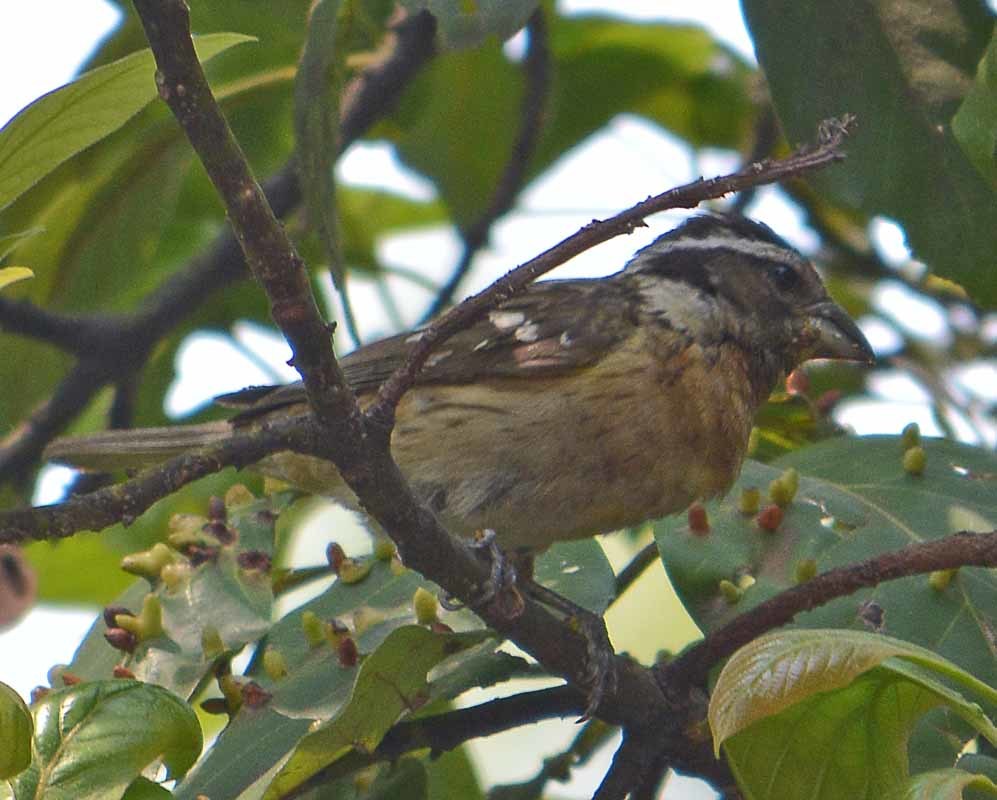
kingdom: Animalia
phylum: Chordata
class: Aves
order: Passeriformes
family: Cardinalidae
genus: Pheucticus
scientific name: Pheucticus melanocephalus
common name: Black-headed grosbeak
